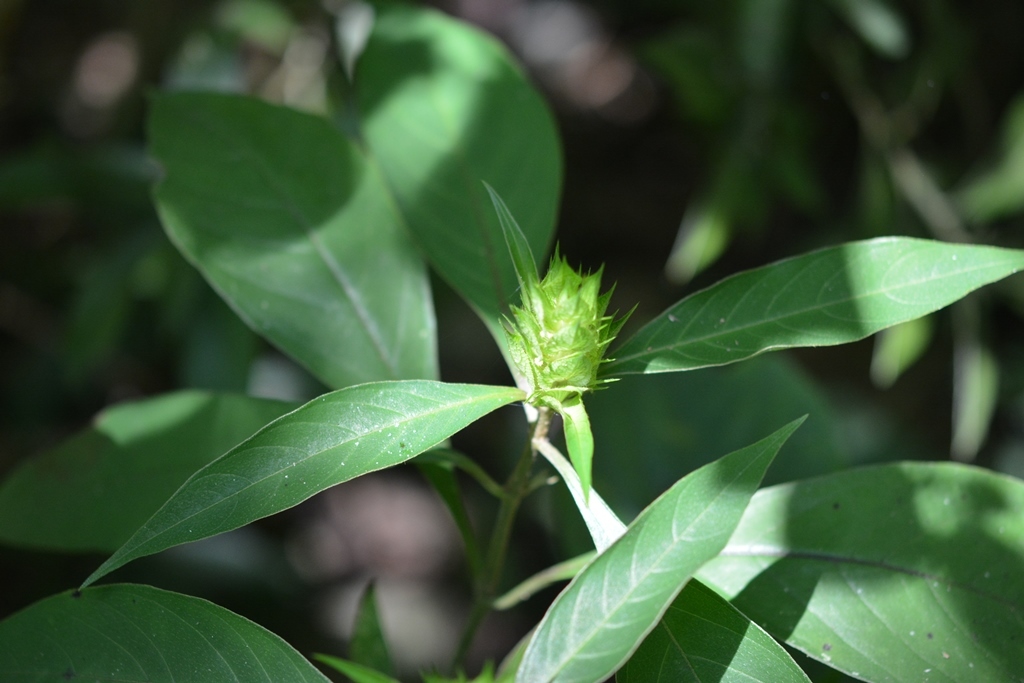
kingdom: Plantae
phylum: Tracheophyta
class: Magnoliopsida
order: Lamiales
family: Acanthaceae
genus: Barleria
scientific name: Barleria oenotheroides
